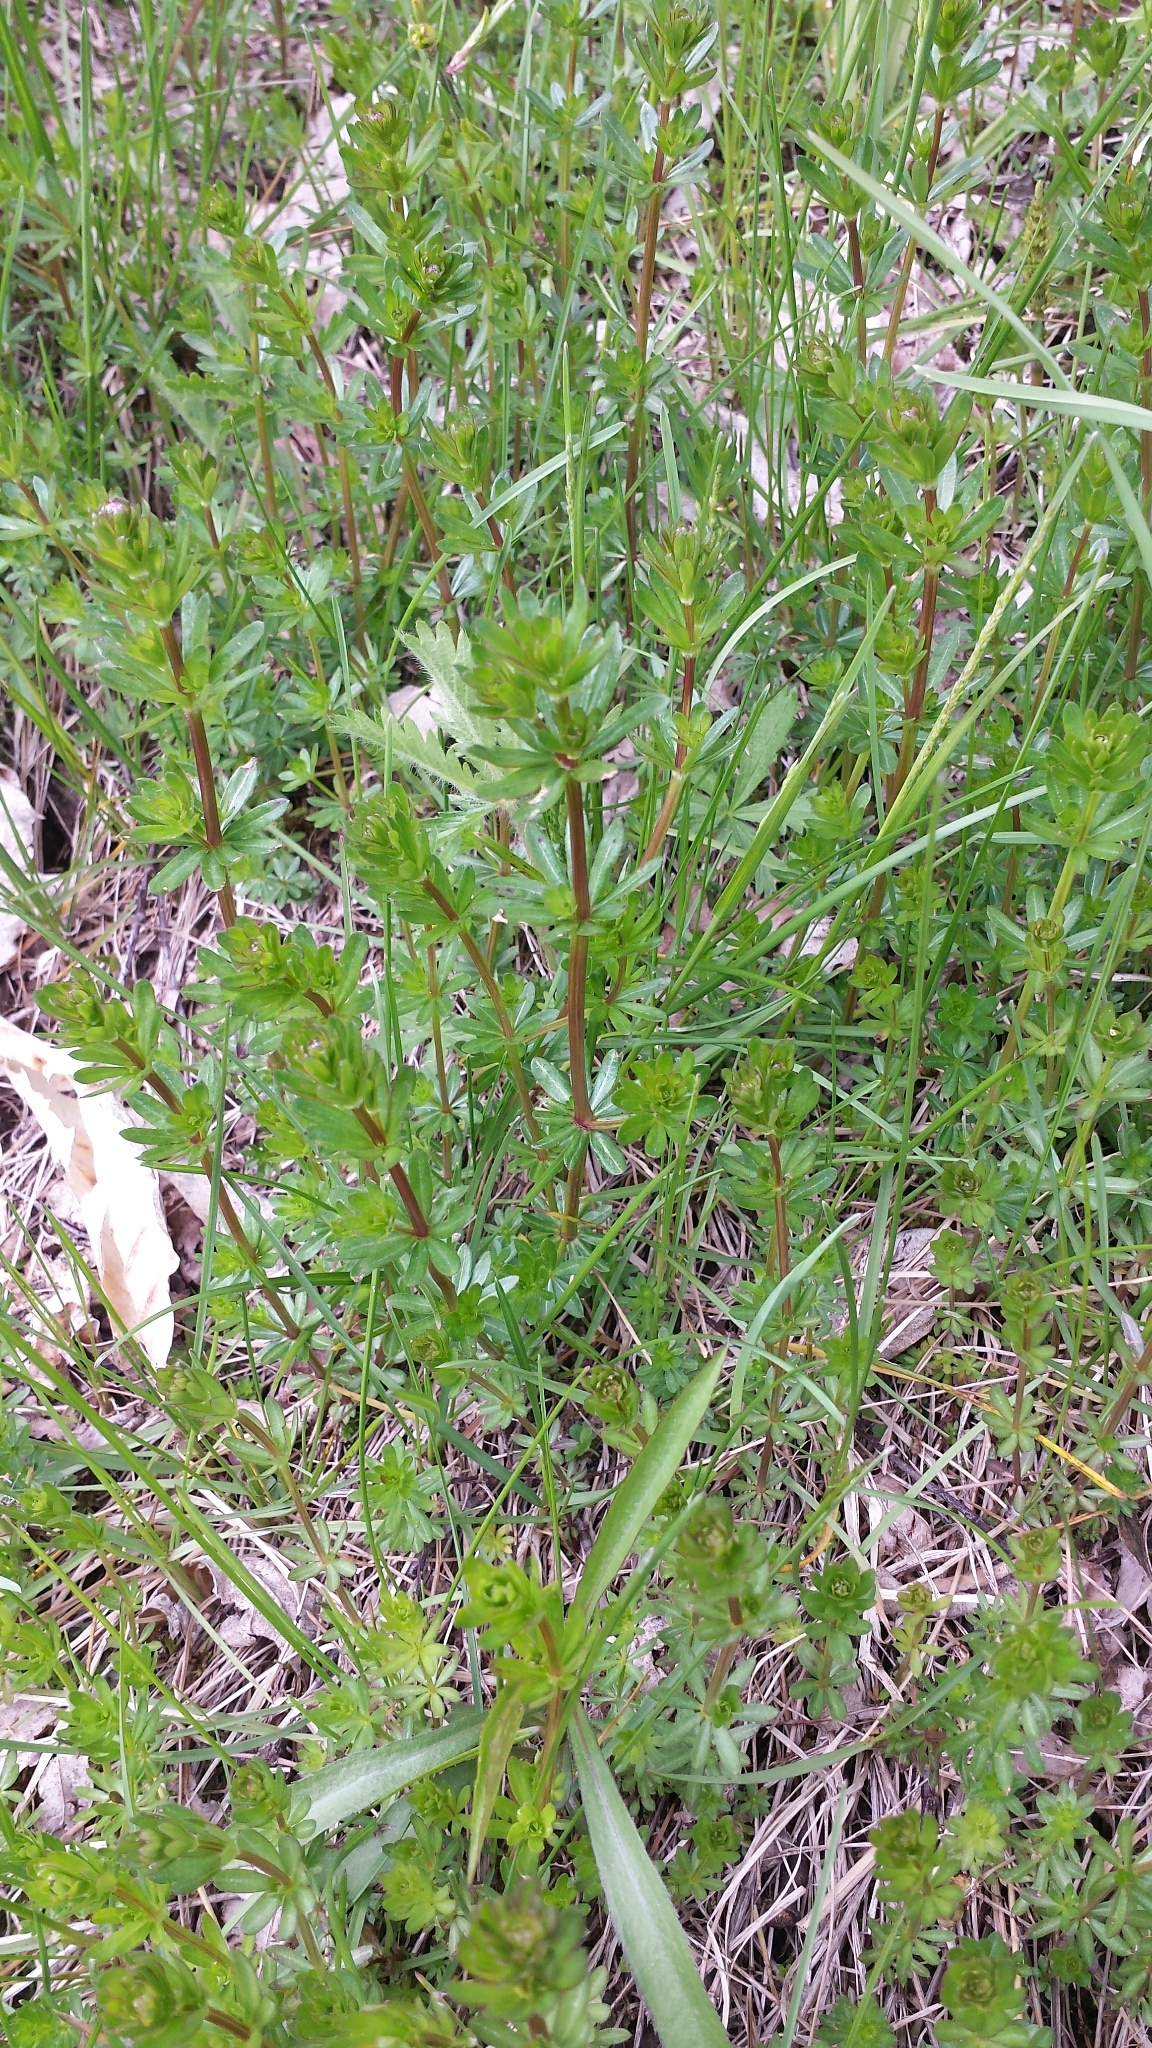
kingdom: Plantae
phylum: Tracheophyta
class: Magnoliopsida
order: Gentianales
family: Rubiaceae
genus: Galium
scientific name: Galium mollugo
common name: Hedge bedstraw
